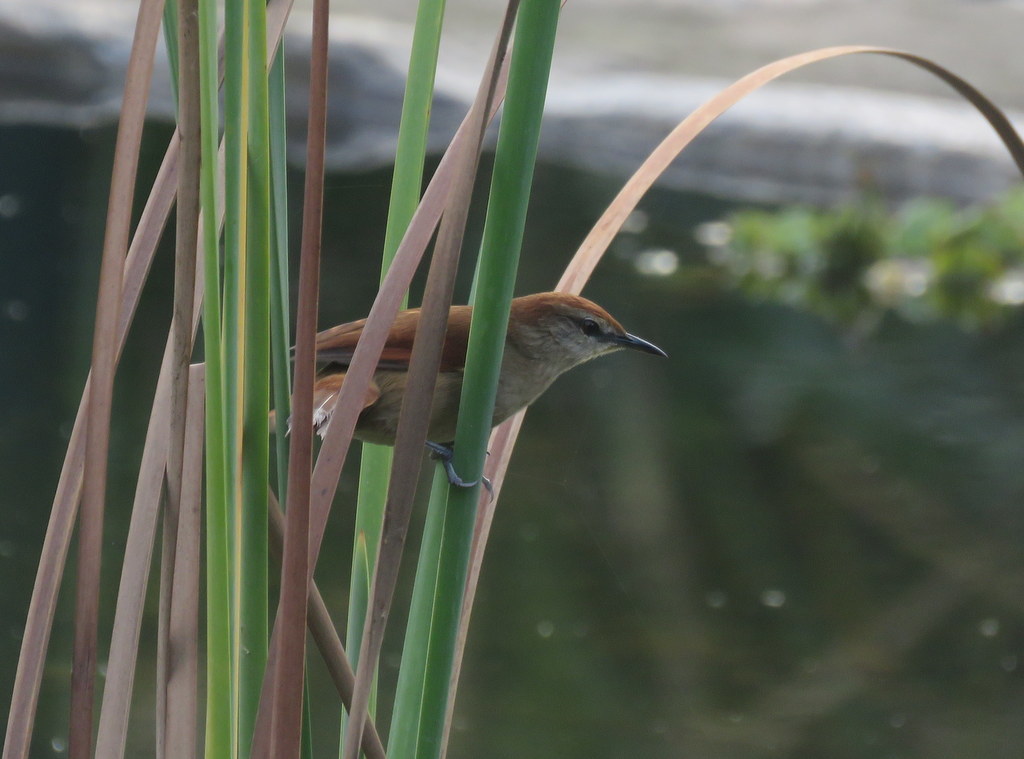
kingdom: Animalia
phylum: Chordata
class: Aves
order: Passeriformes
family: Furnariidae
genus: Certhiaxis
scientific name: Certhiaxis cinnamomeus
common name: Yellow-chinned spinetail
